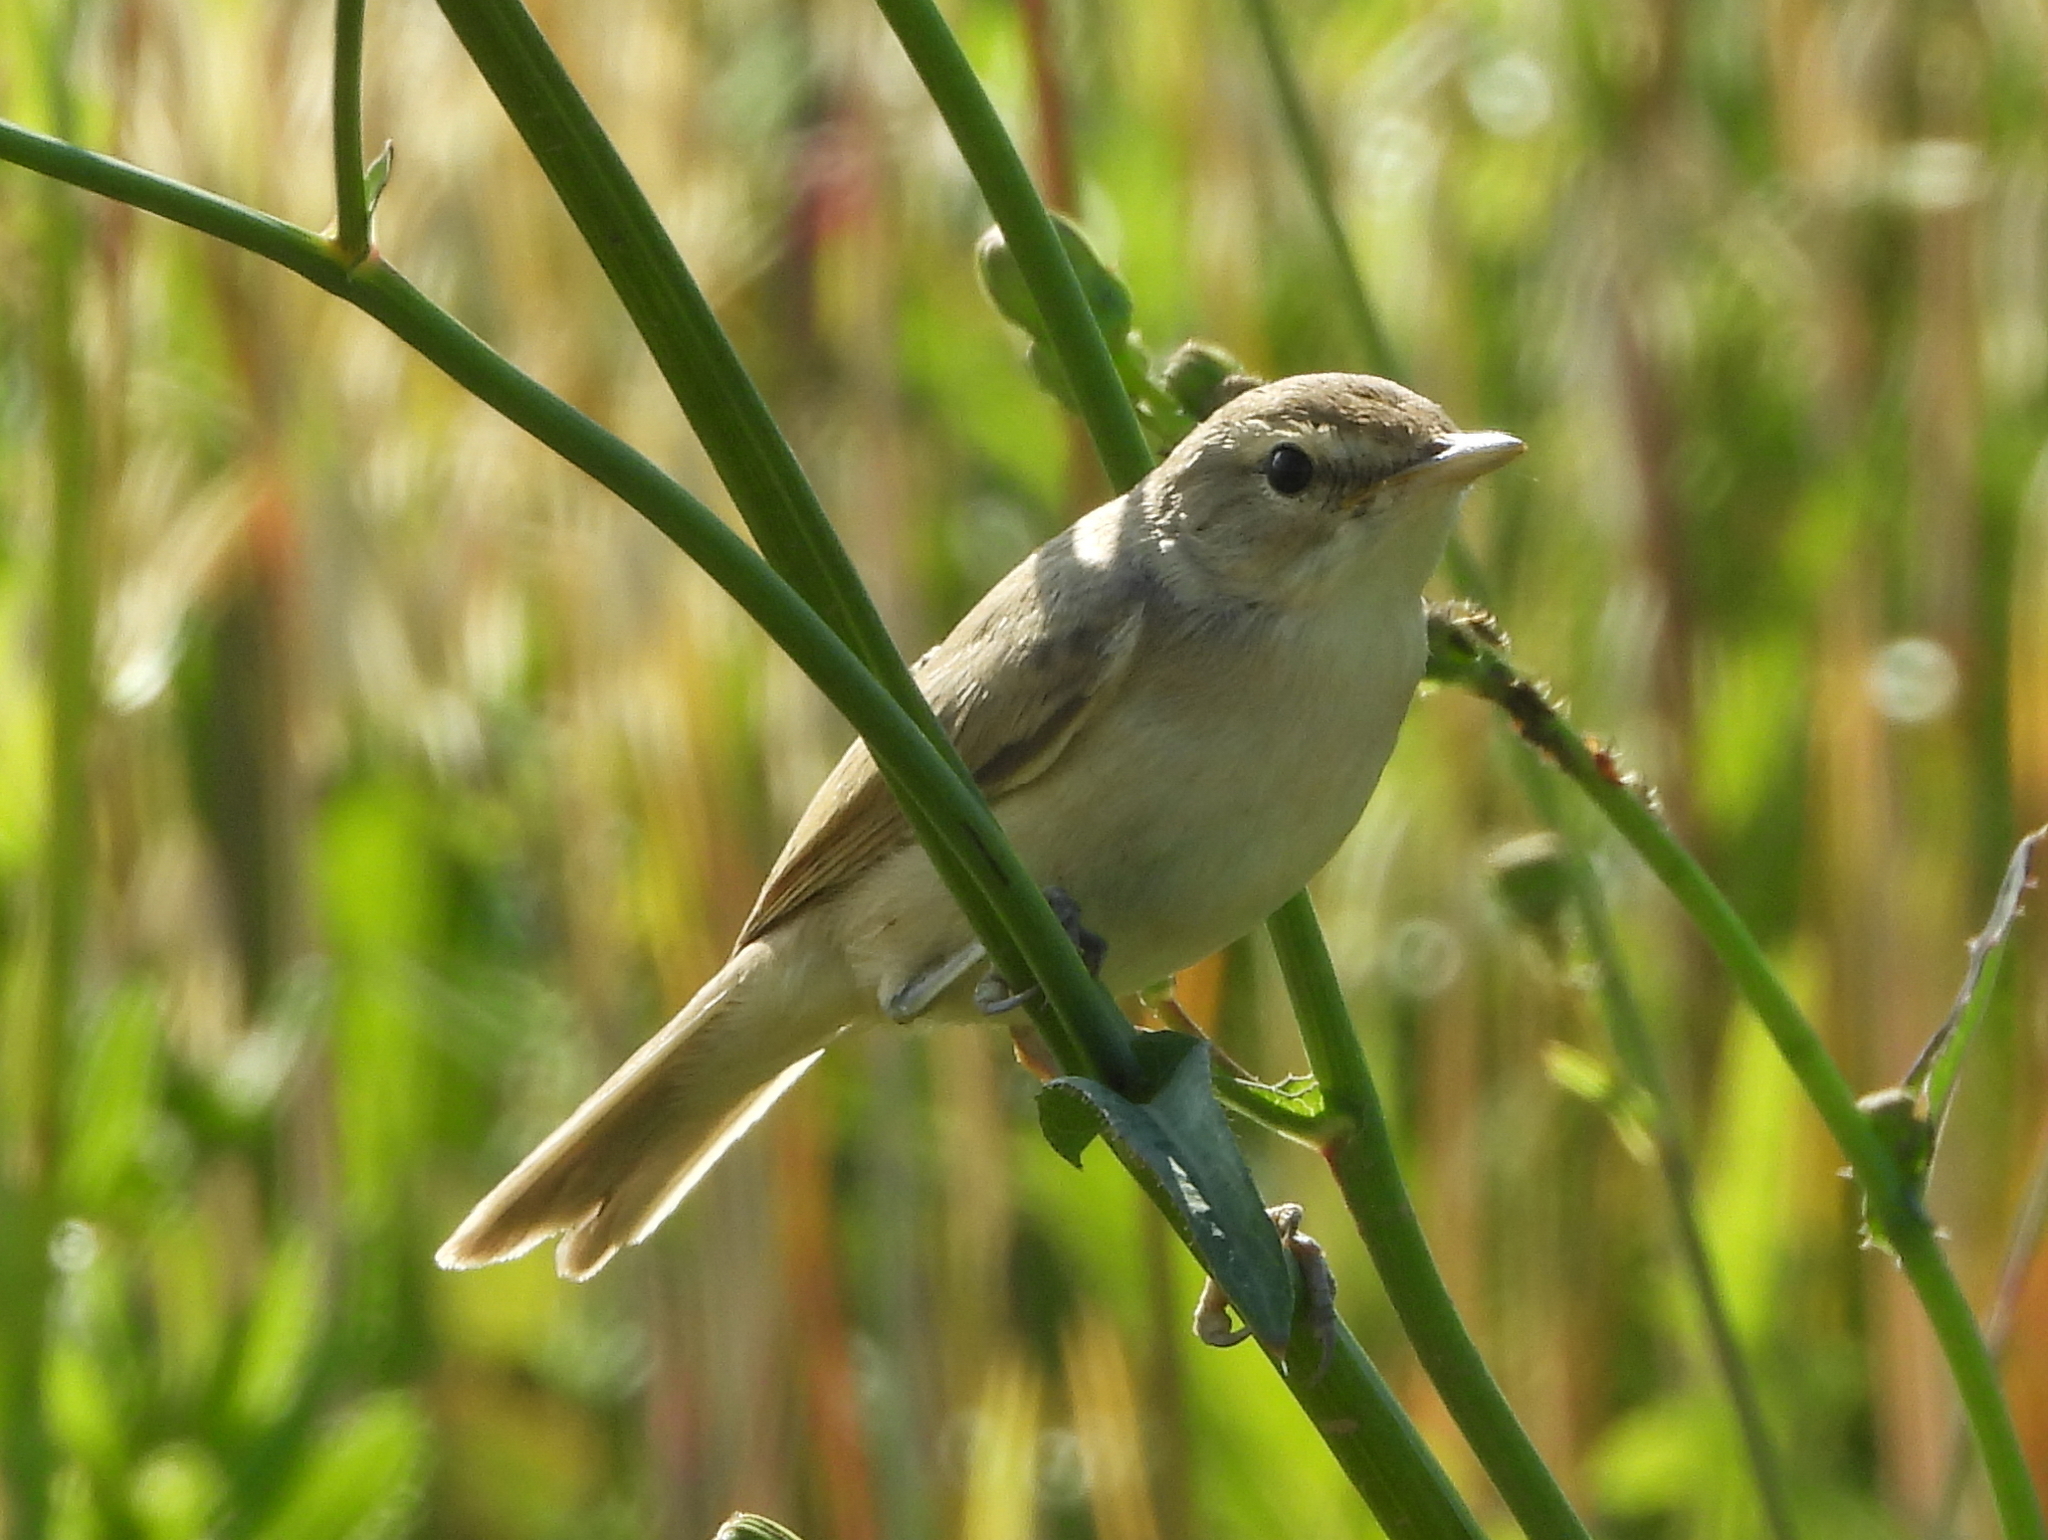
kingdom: Animalia
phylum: Chordata
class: Aves
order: Passeriformes
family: Acrocephalidae
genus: Iduna
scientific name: Iduna caligata
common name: Booted warbler
